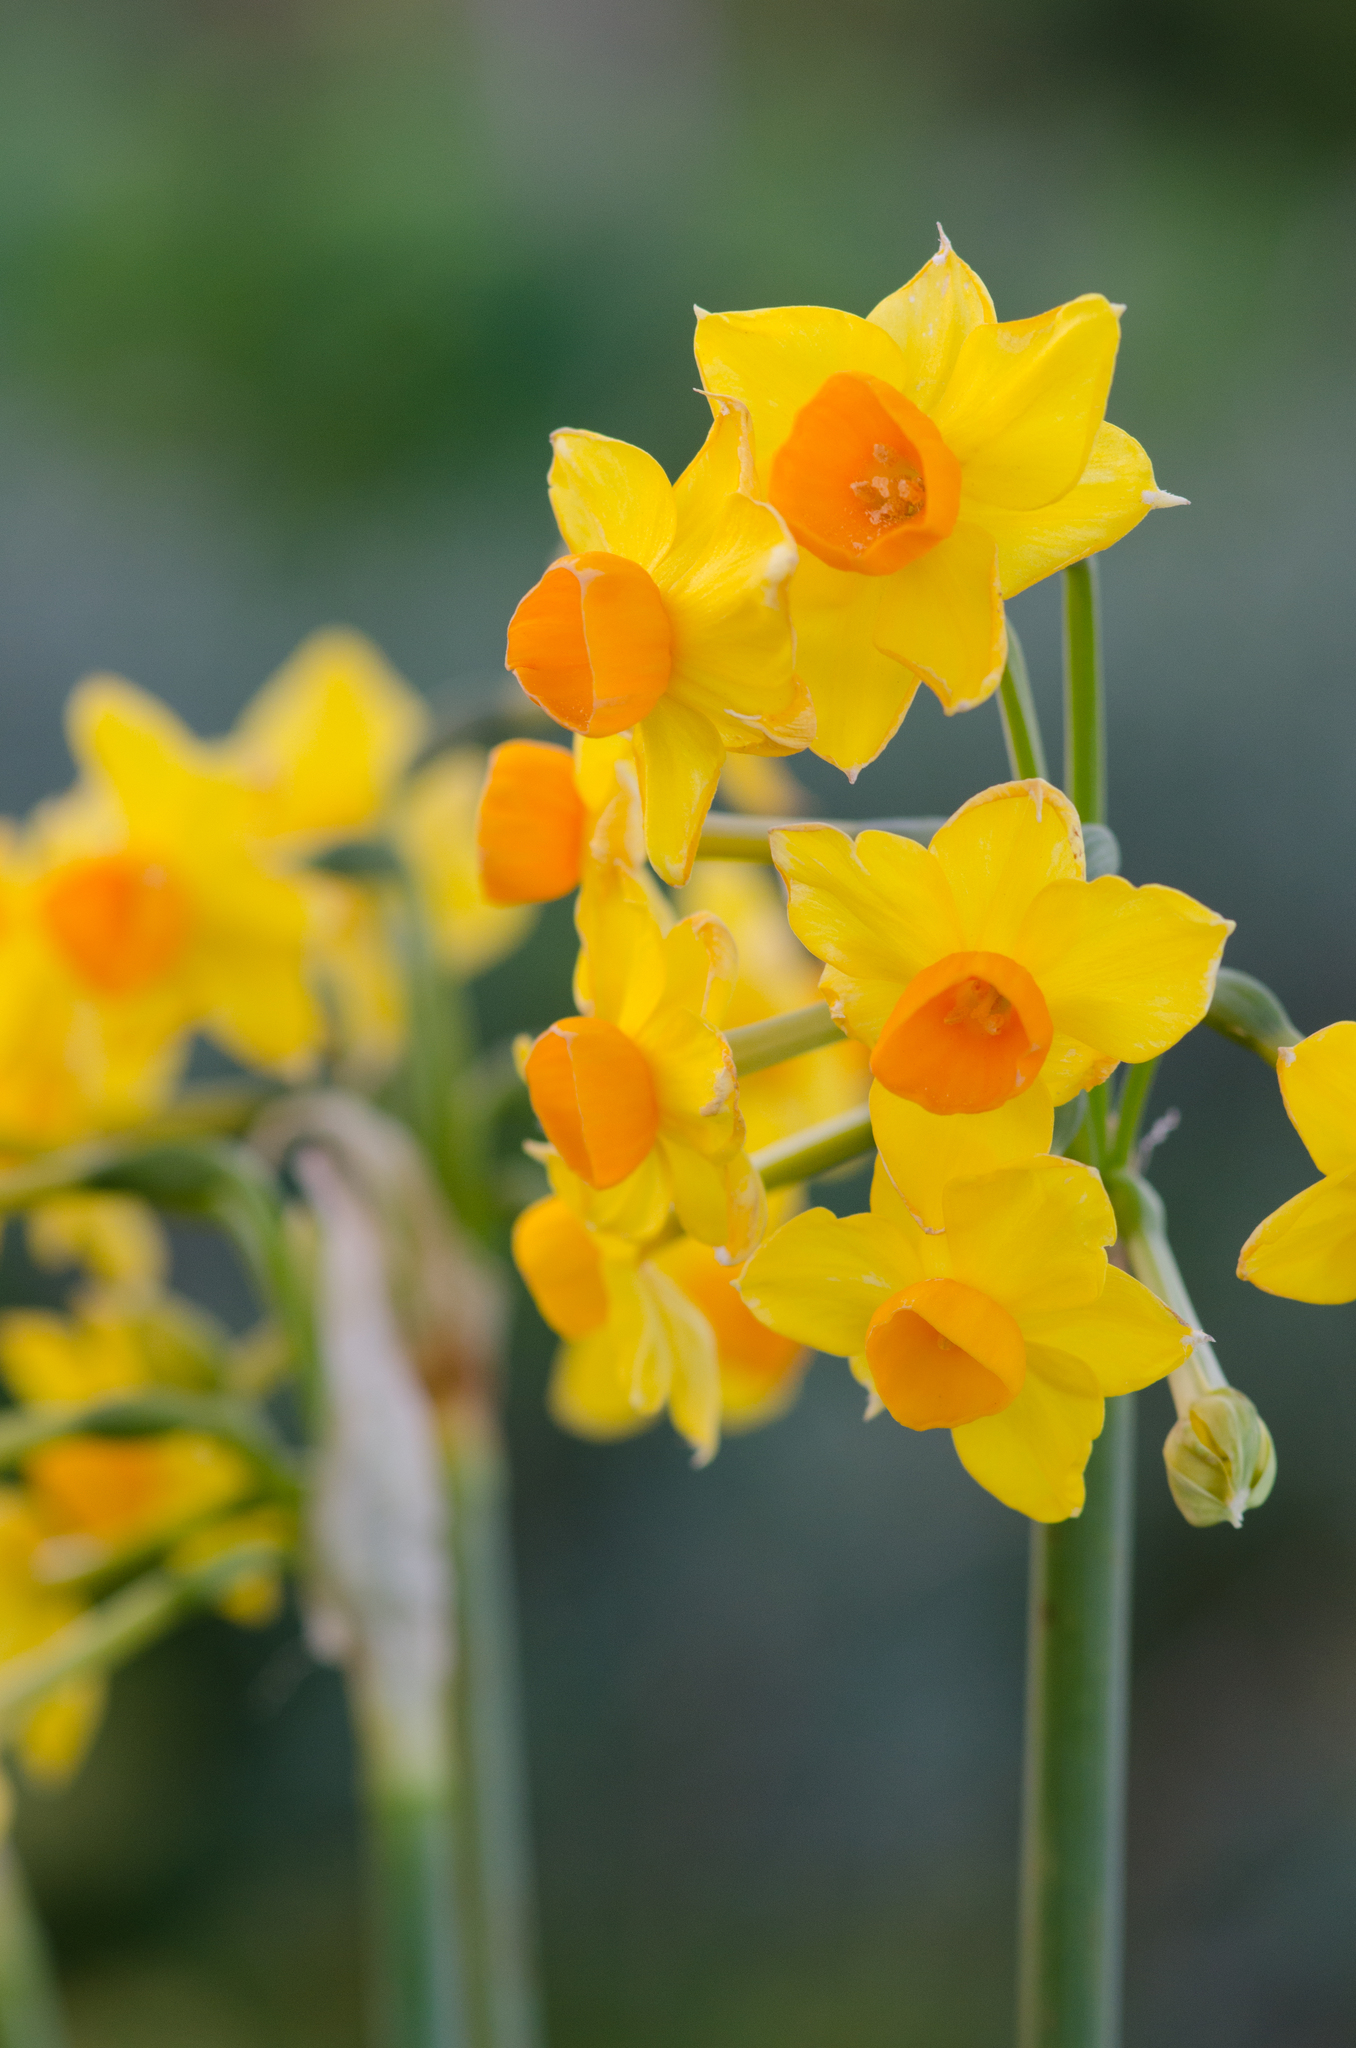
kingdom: Plantae
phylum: Tracheophyta
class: Liliopsida
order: Asparagales
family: Amaryllidaceae
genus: Narcissus
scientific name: Narcissus tazetta
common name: Bunch-flowered daffodil
